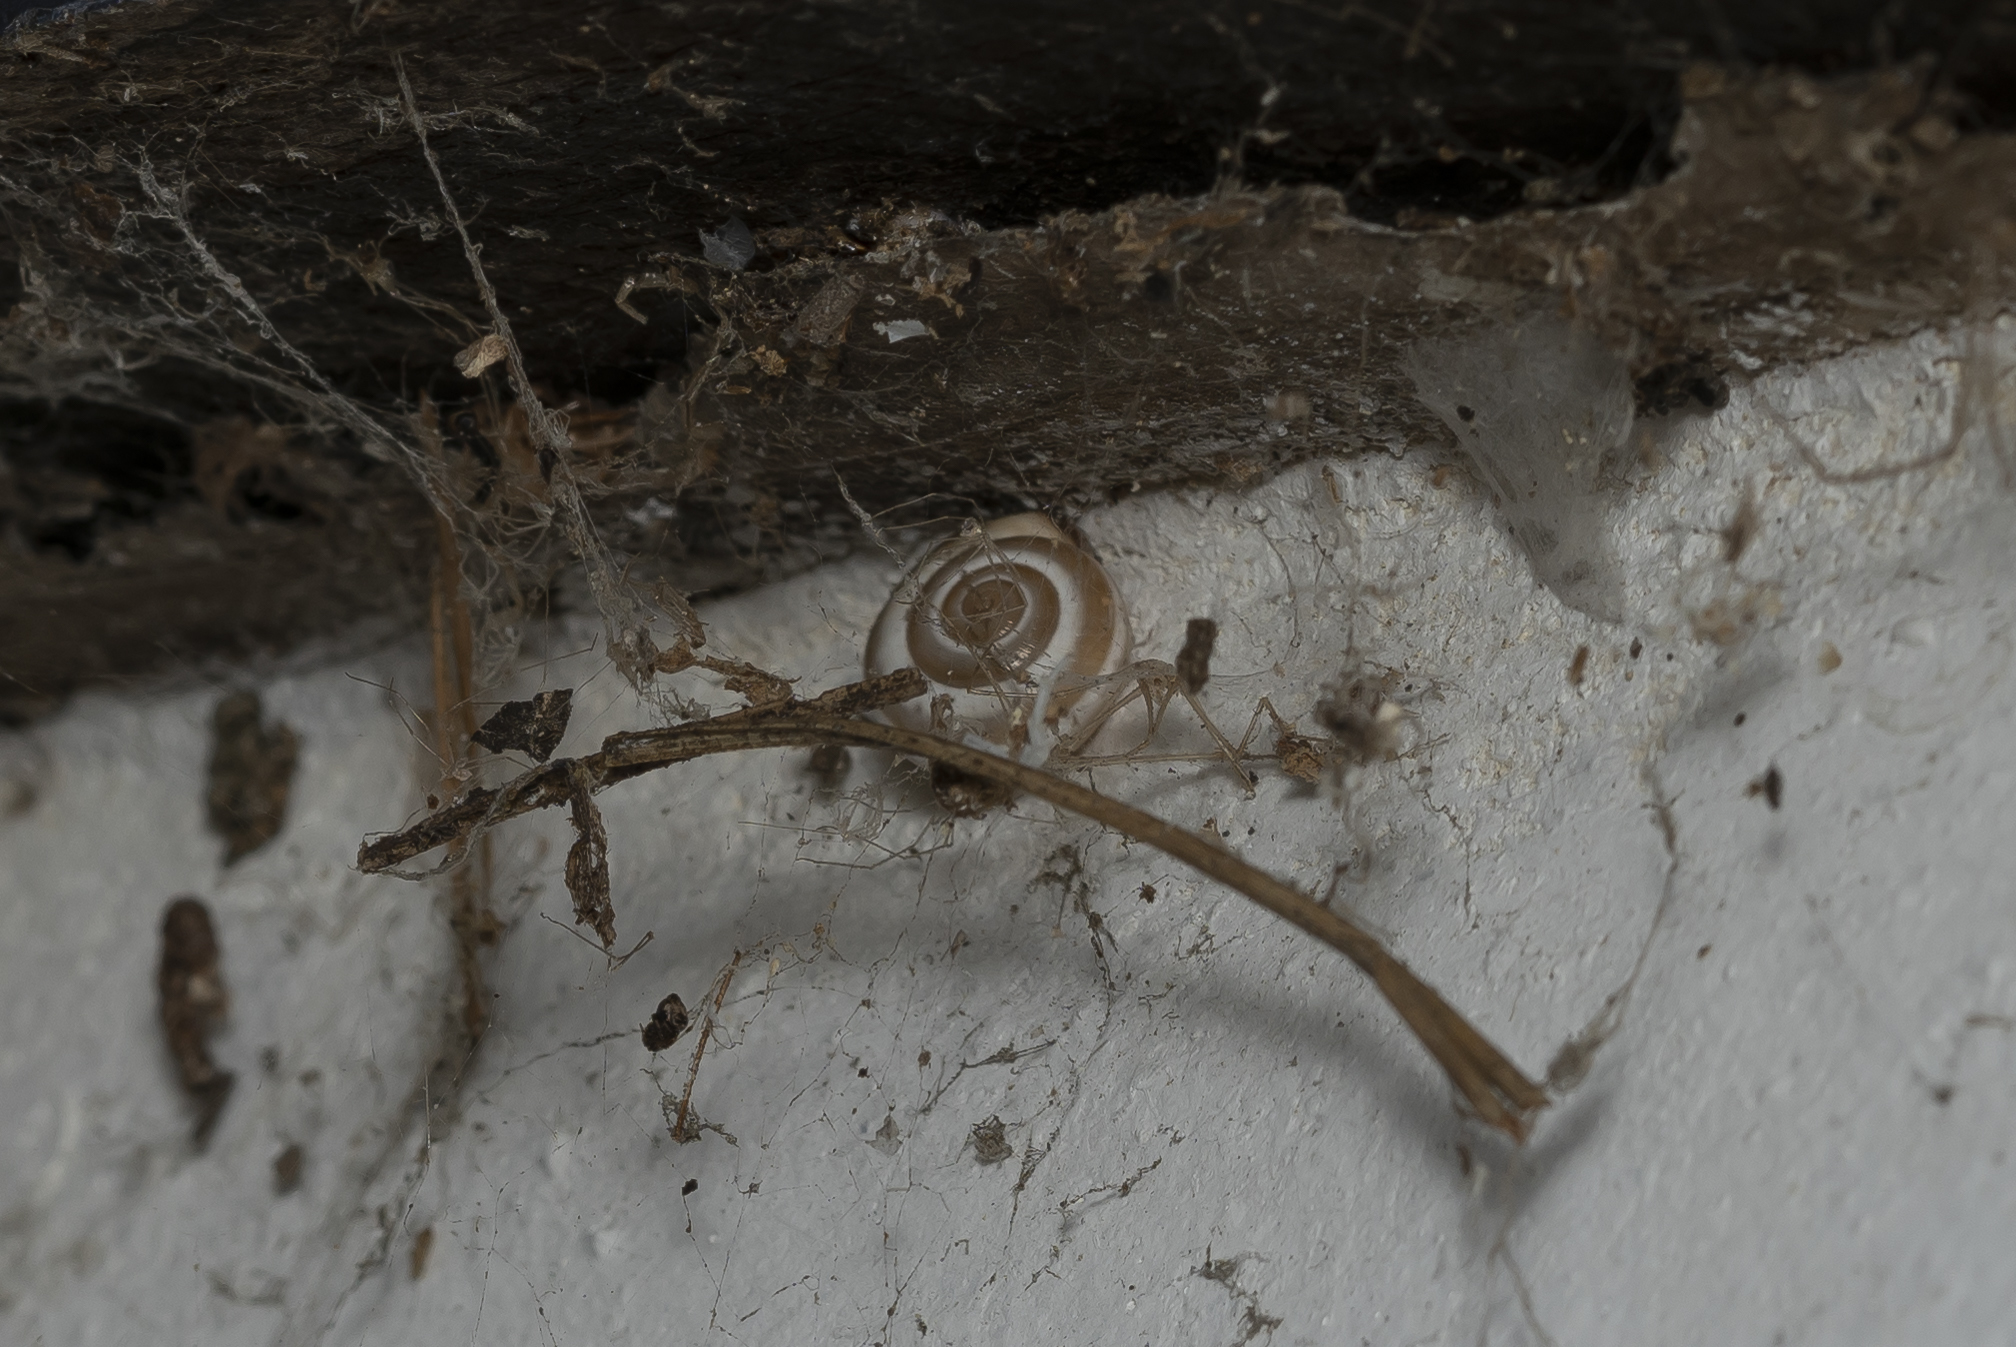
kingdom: Animalia
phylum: Mollusca
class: Gastropoda
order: Stylommatophora
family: Hygromiidae
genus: Monacha
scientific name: Monacha syriaca
